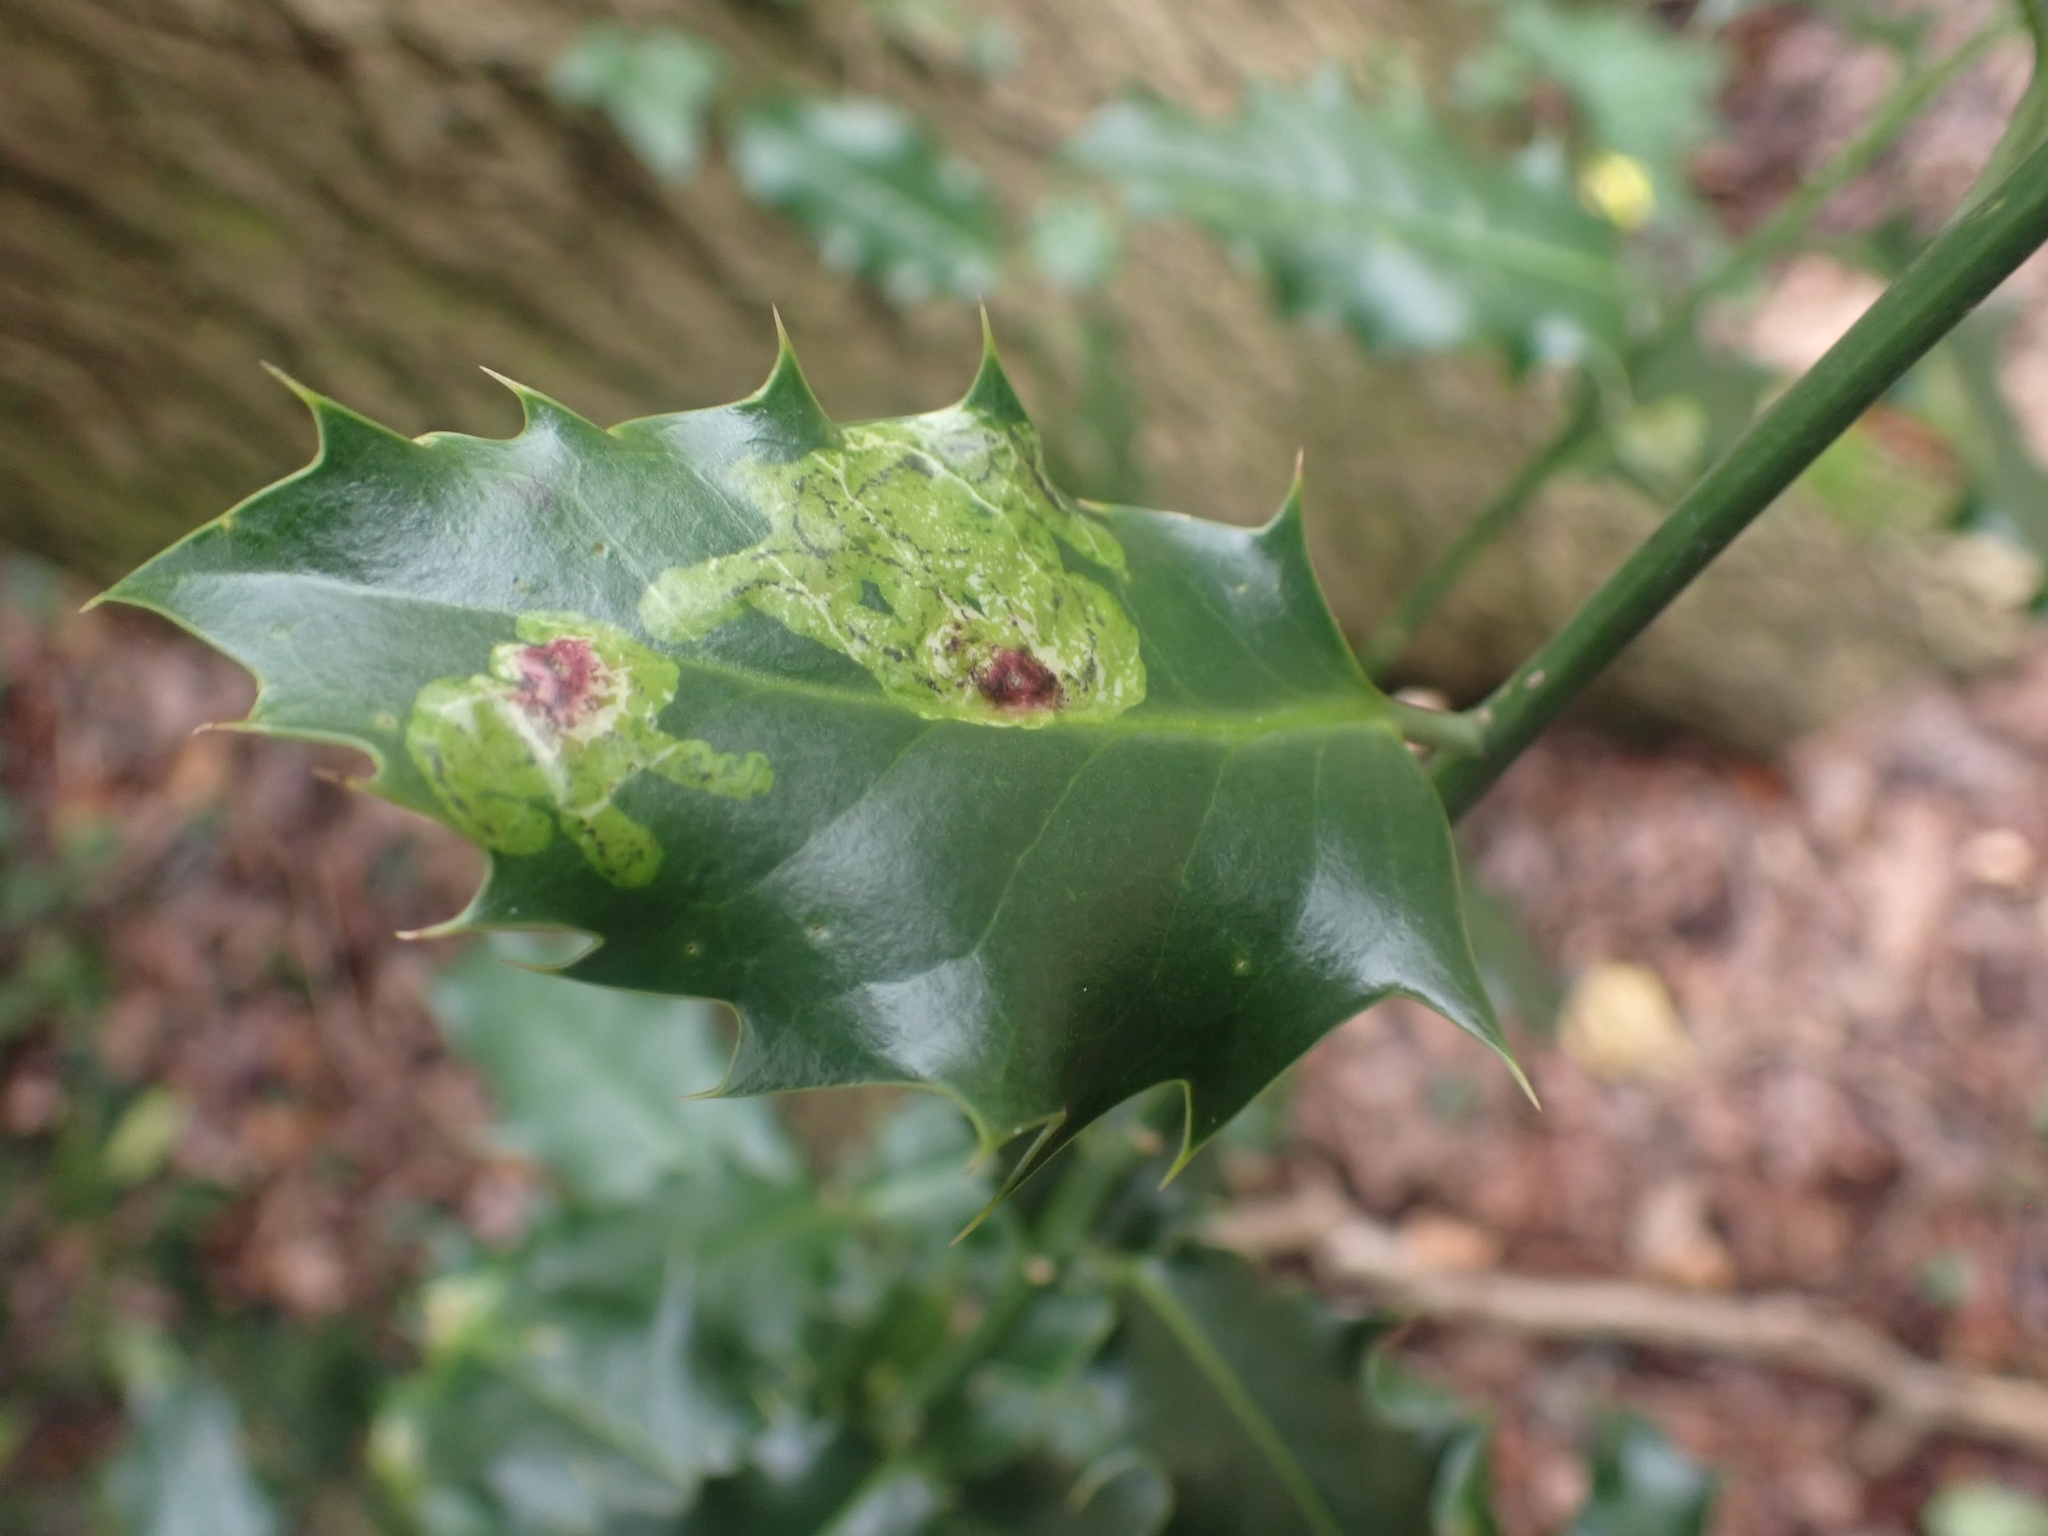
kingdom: Animalia
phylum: Arthropoda
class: Insecta
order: Diptera
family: Agromyzidae
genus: Phytomyza
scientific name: Phytomyza ilicis
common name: Holly leafminer
